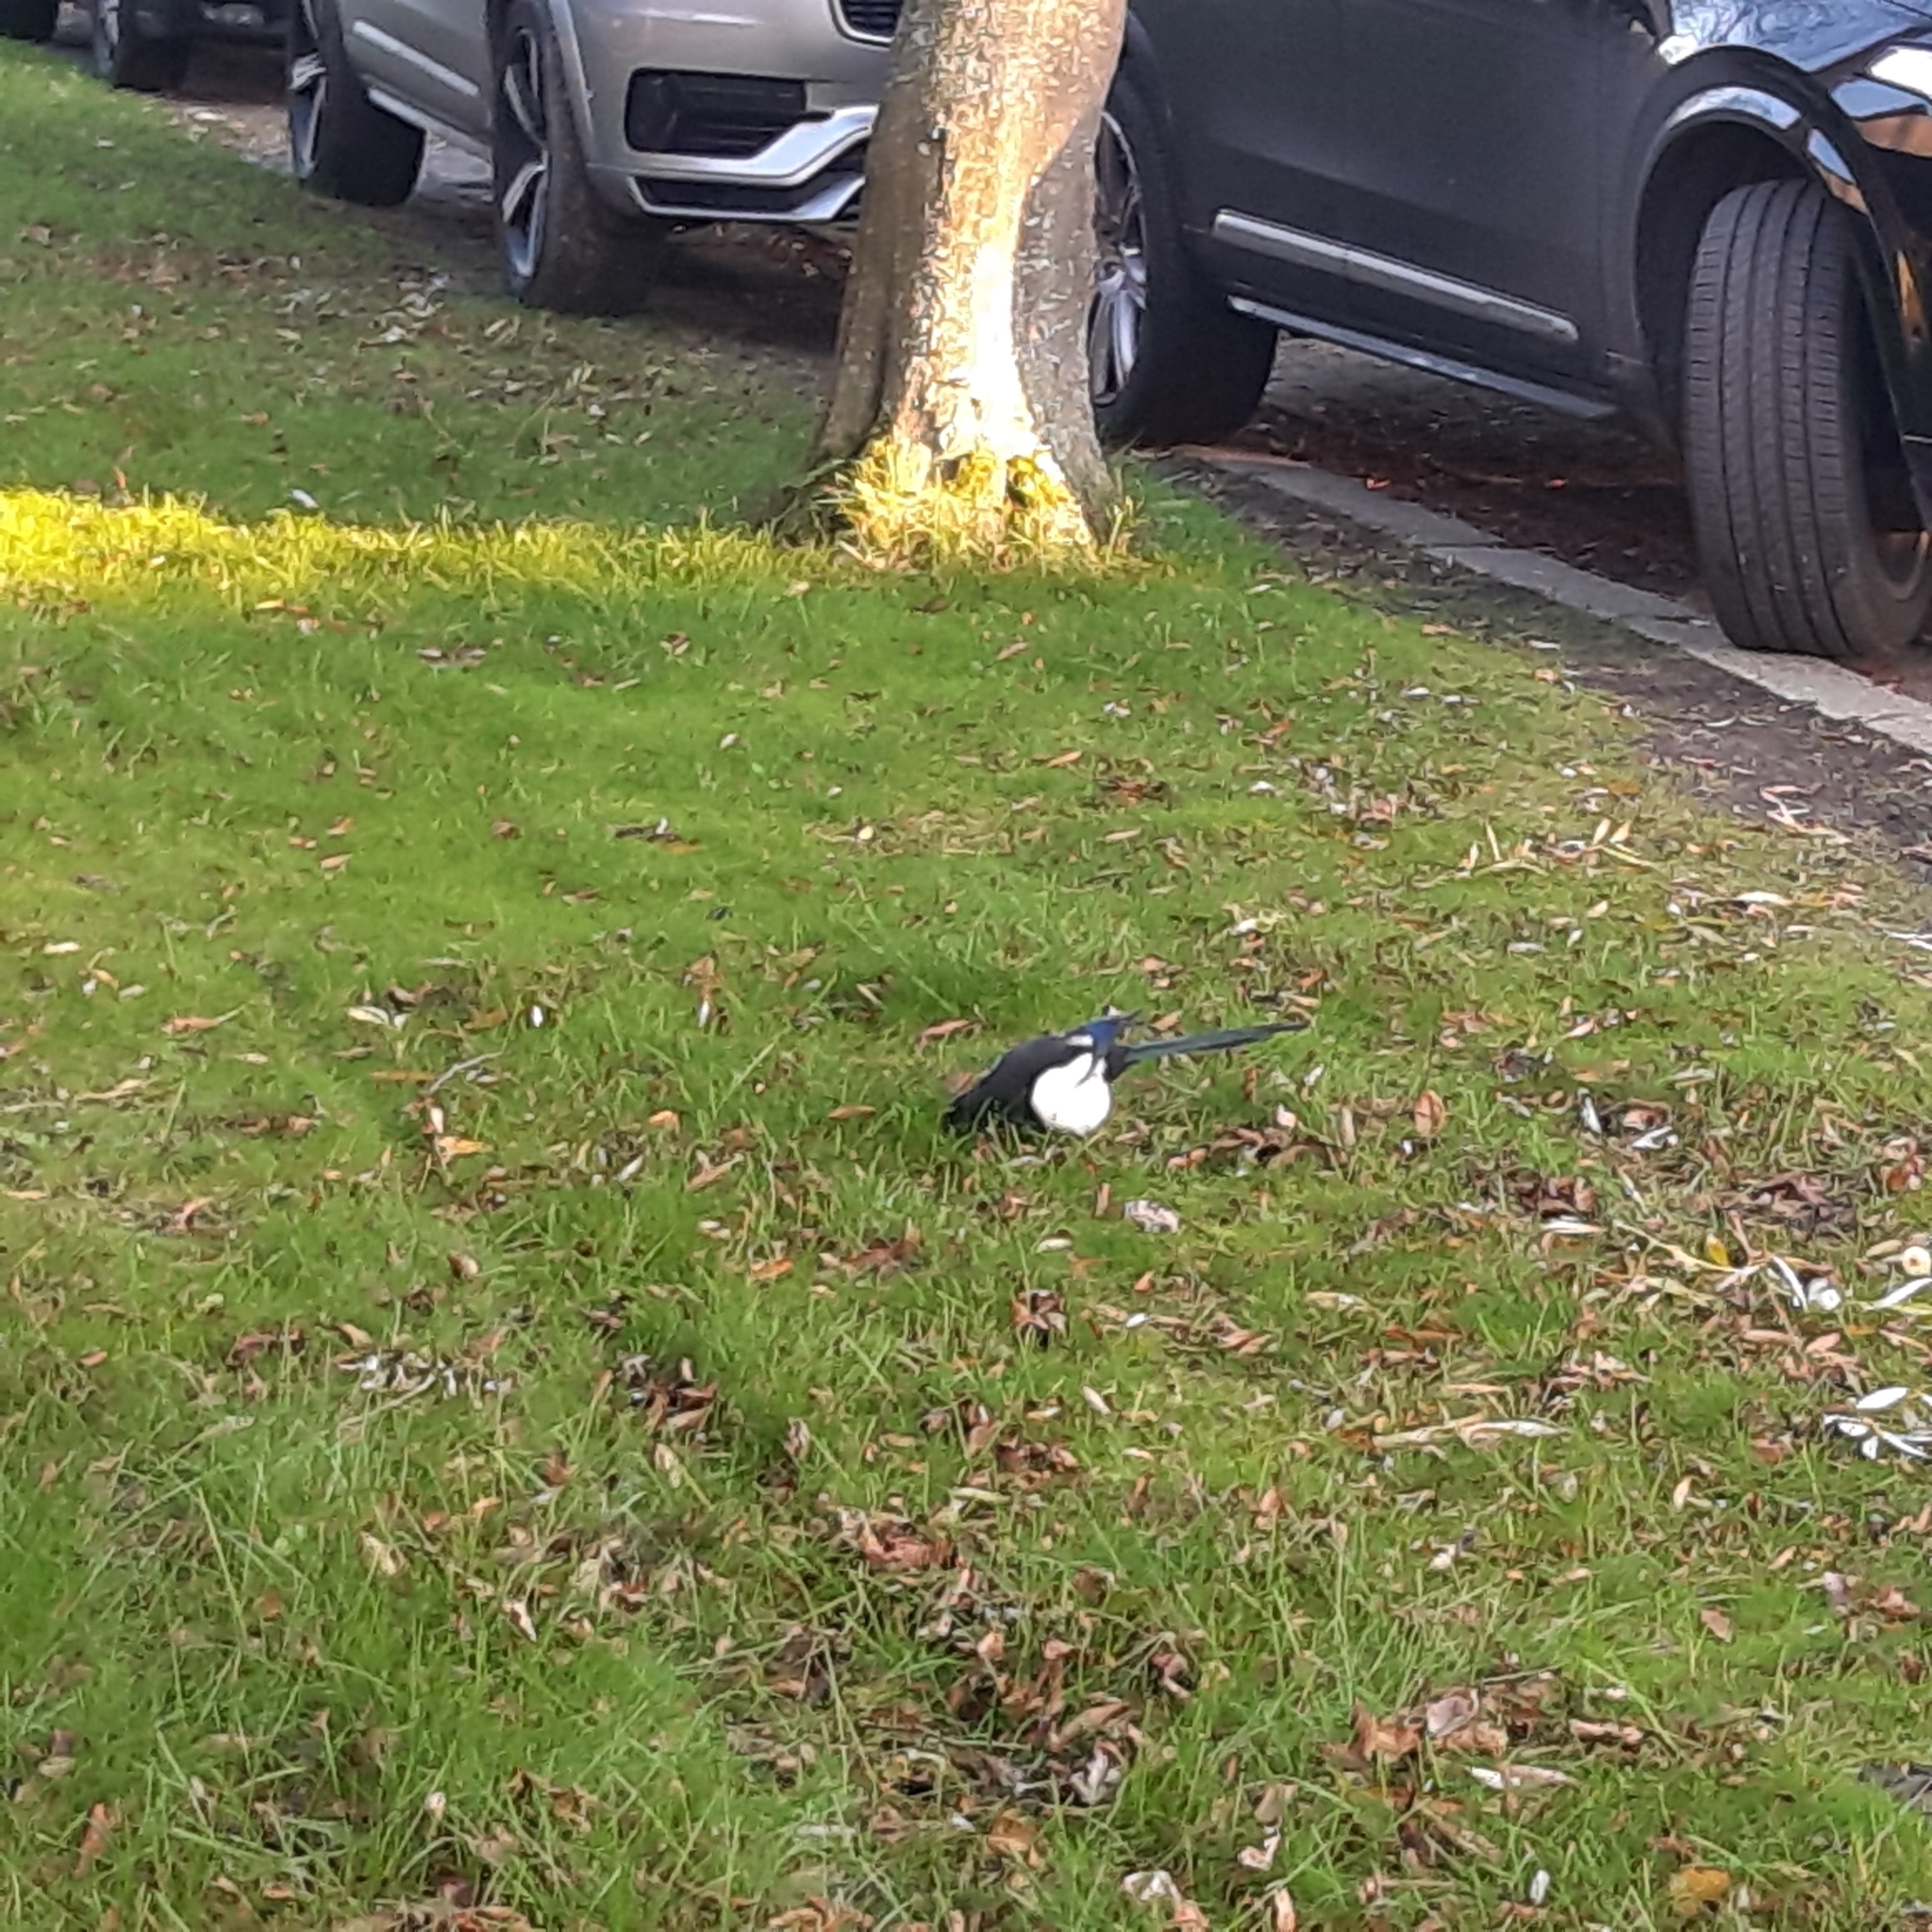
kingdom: Animalia
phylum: Chordata
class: Aves
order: Passeriformes
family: Corvidae
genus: Pica
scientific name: Pica pica
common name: Eurasian magpie
